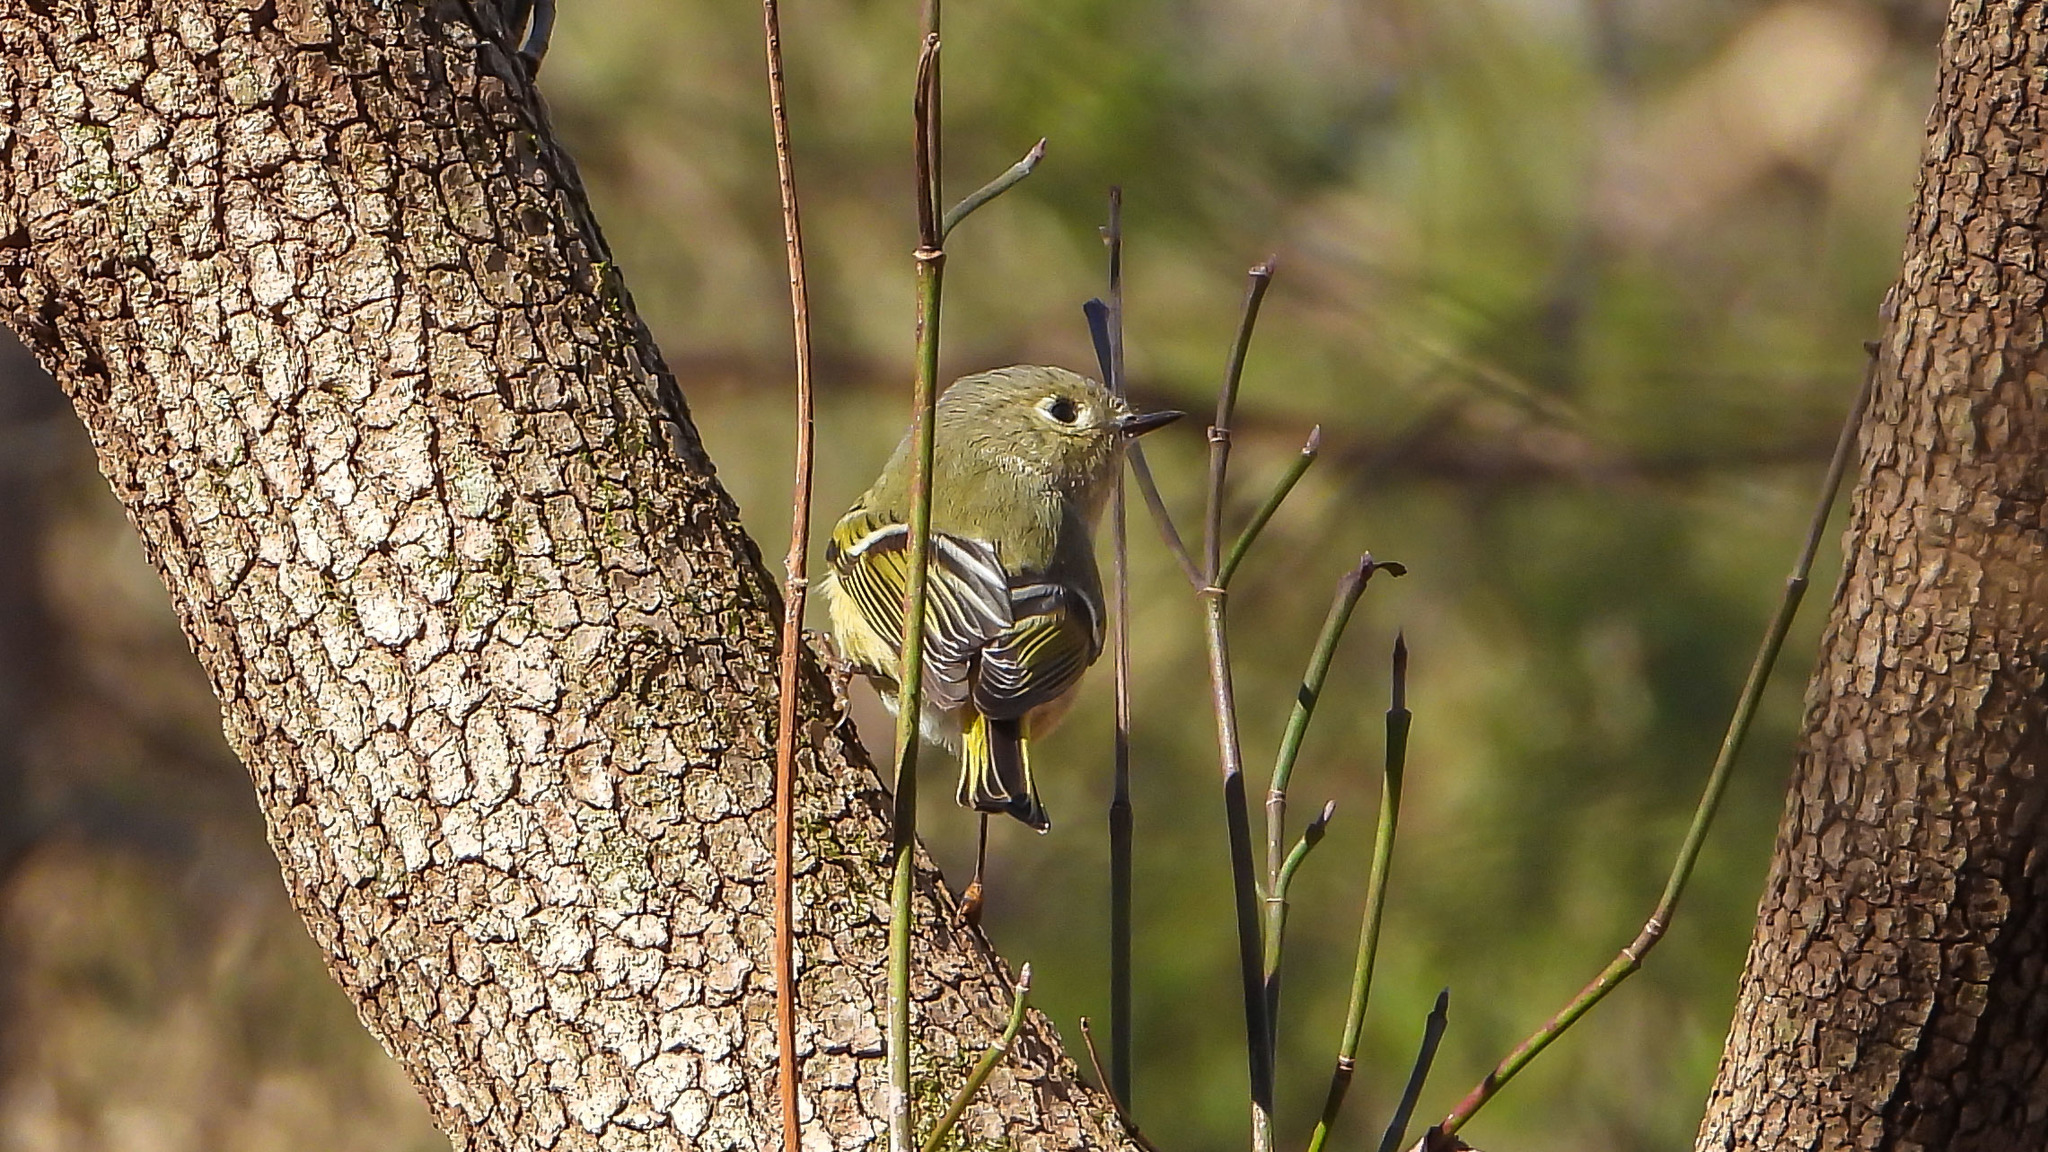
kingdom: Animalia
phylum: Chordata
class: Aves
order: Passeriformes
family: Regulidae
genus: Regulus
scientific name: Regulus calendula
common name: Ruby-crowned kinglet
